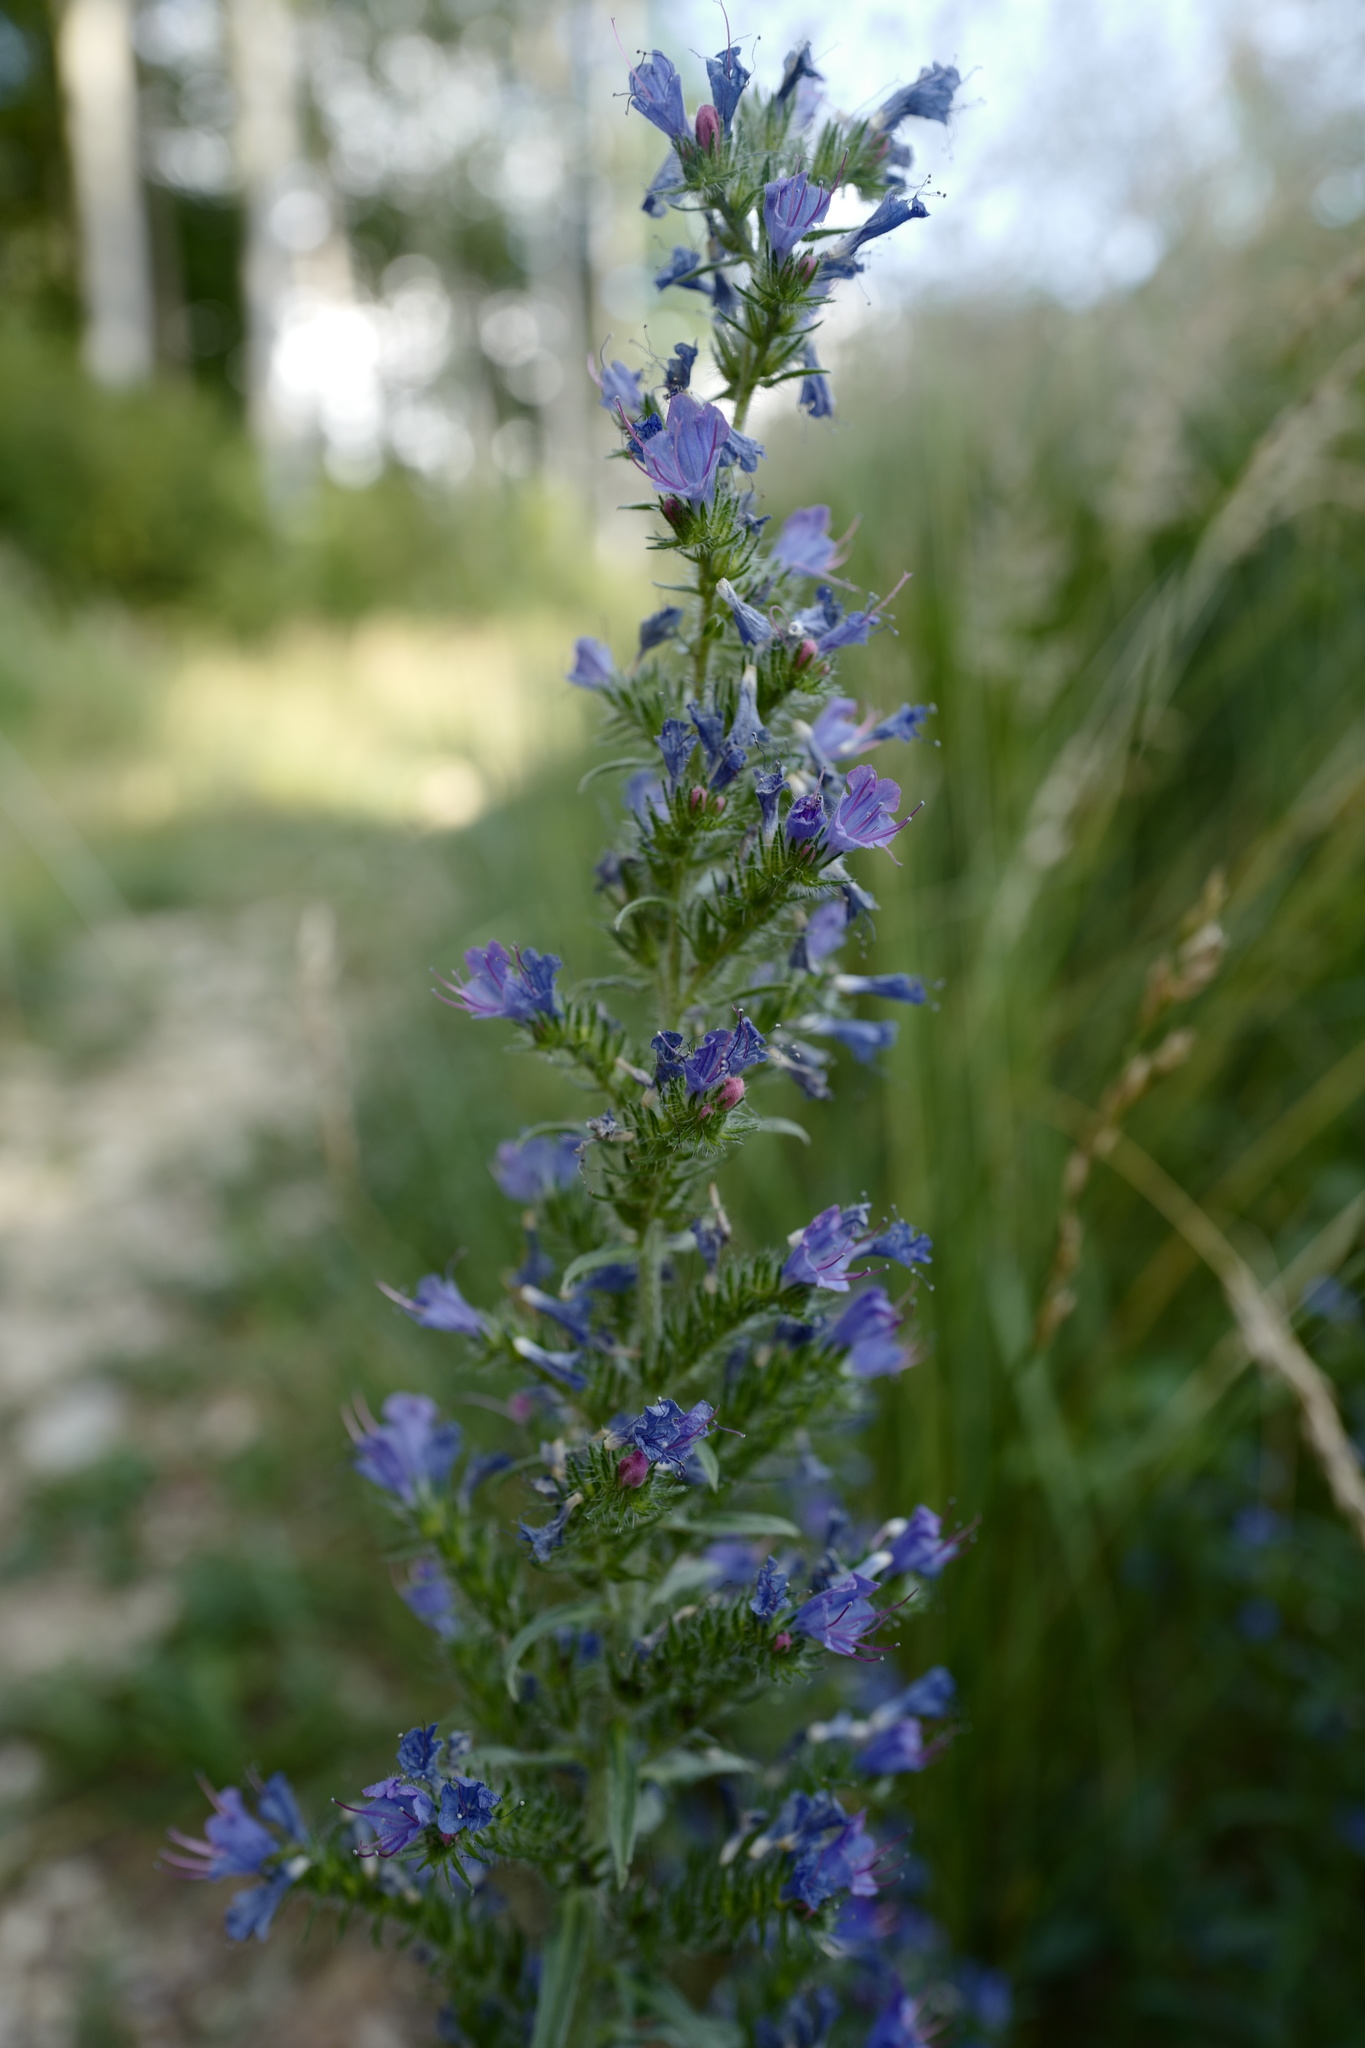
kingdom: Plantae
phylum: Tracheophyta
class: Magnoliopsida
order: Boraginales
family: Boraginaceae
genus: Echium
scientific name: Echium vulgare
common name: Common viper's bugloss
